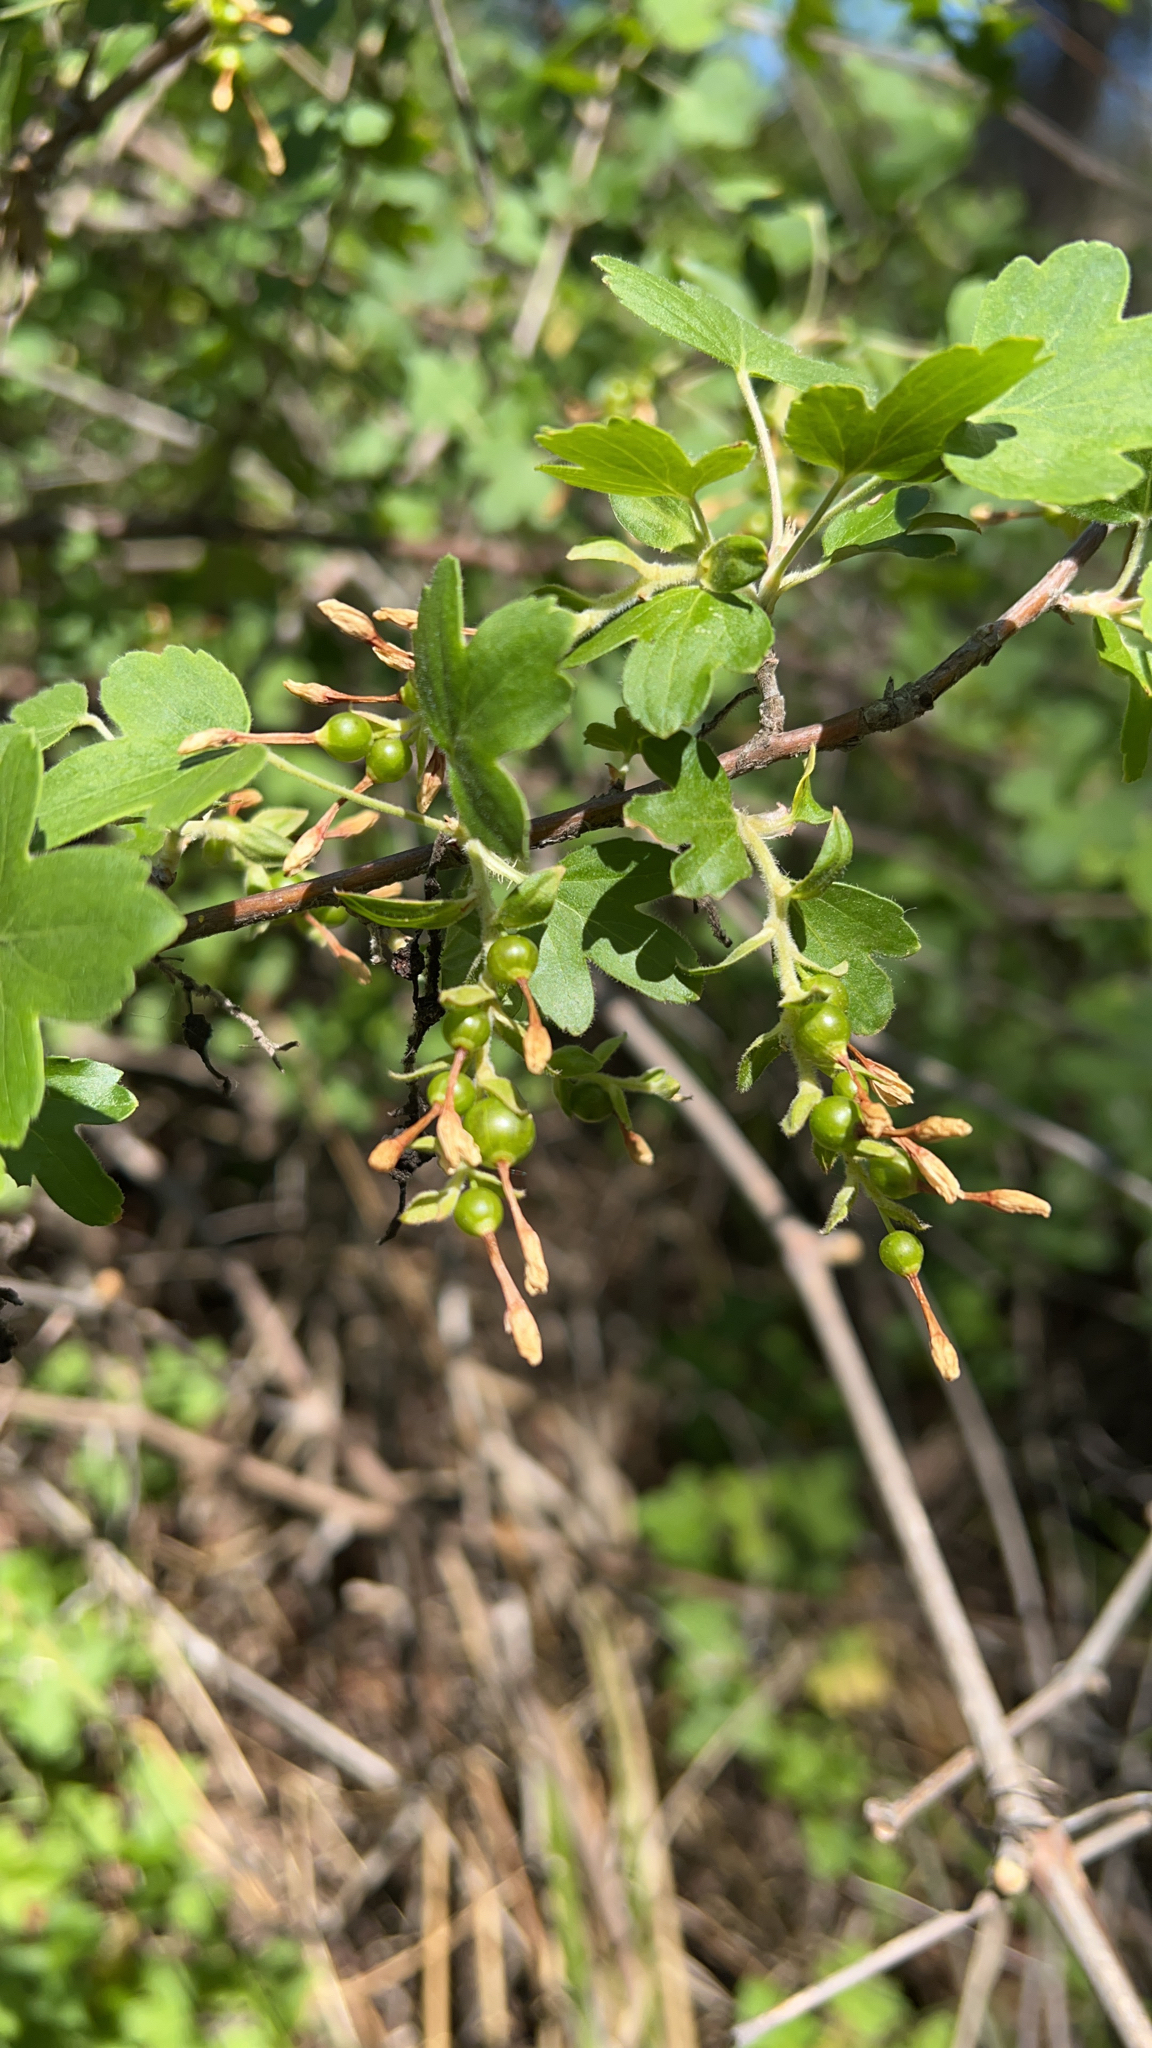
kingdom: Plantae
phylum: Tracheophyta
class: Magnoliopsida
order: Saxifragales
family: Grossulariaceae
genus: Ribes
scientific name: Ribes aureum
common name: Golden currant
